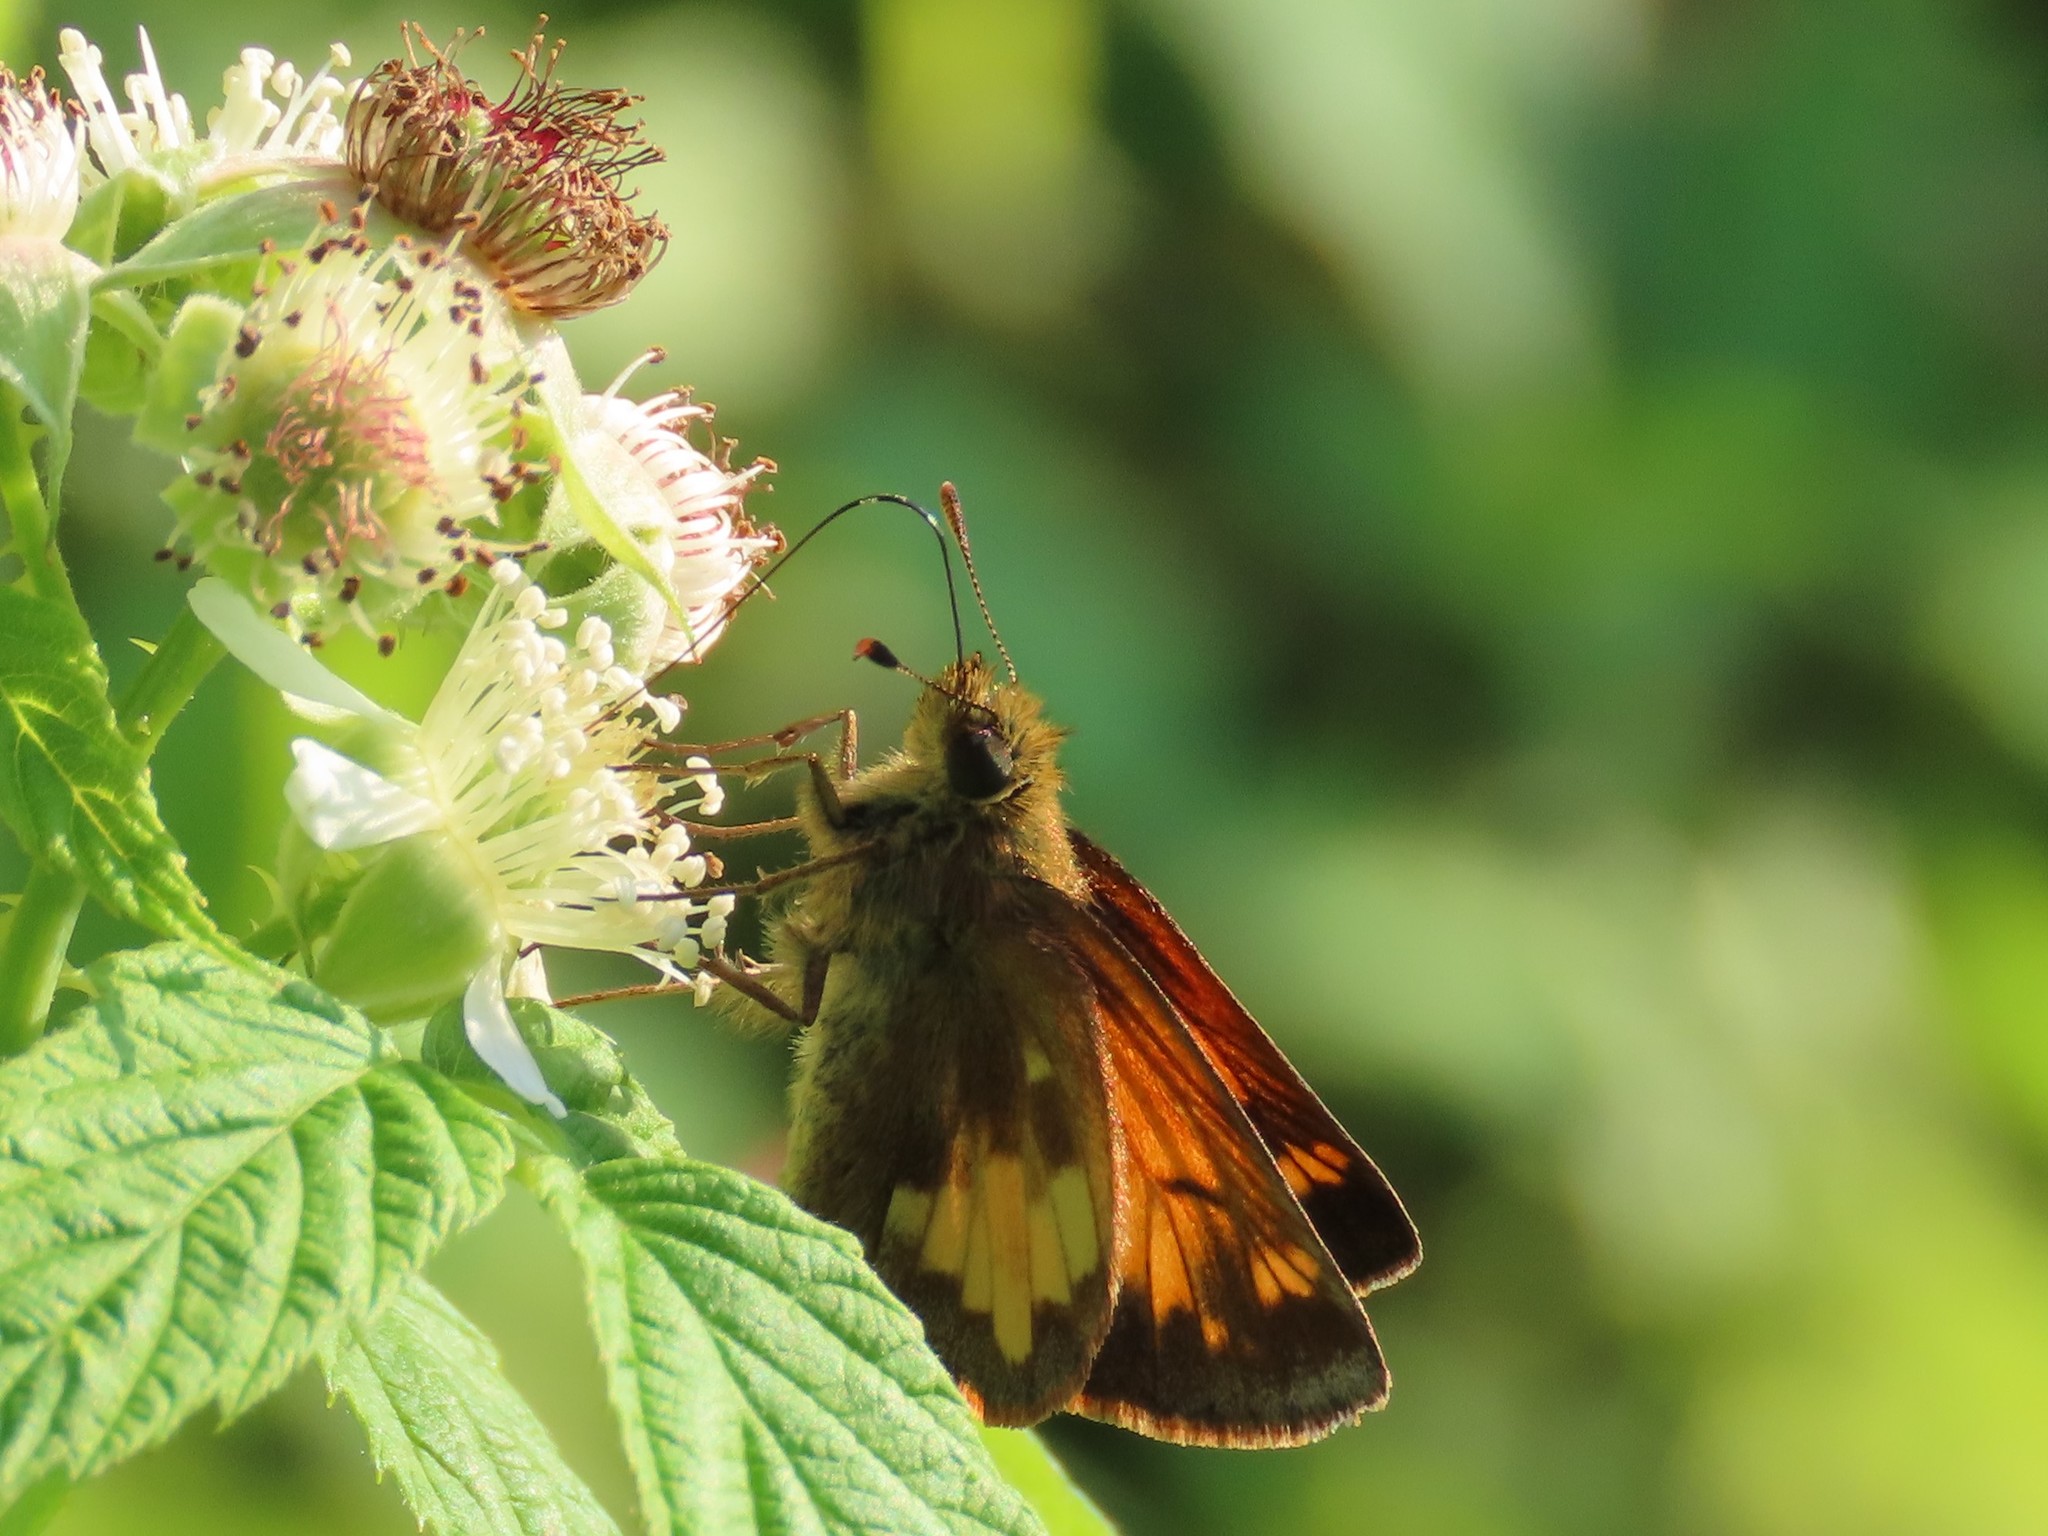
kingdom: Animalia
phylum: Arthropoda
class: Insecta
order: Lepidoptera
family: Hesperiidae
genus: Lon
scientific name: Lon hobomok
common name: Hobomok skipper
